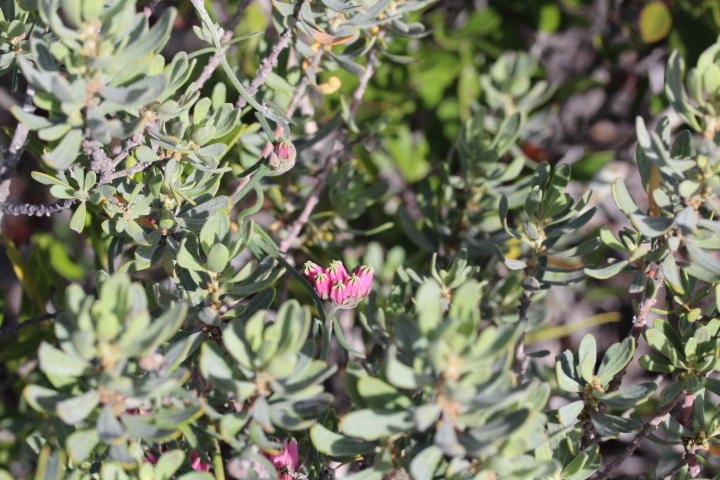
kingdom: Plantae
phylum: Tracheophyta
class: Magnoliopsida
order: Gentianales
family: Apocynaceae
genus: Microloma
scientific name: Microloma sagittatum
